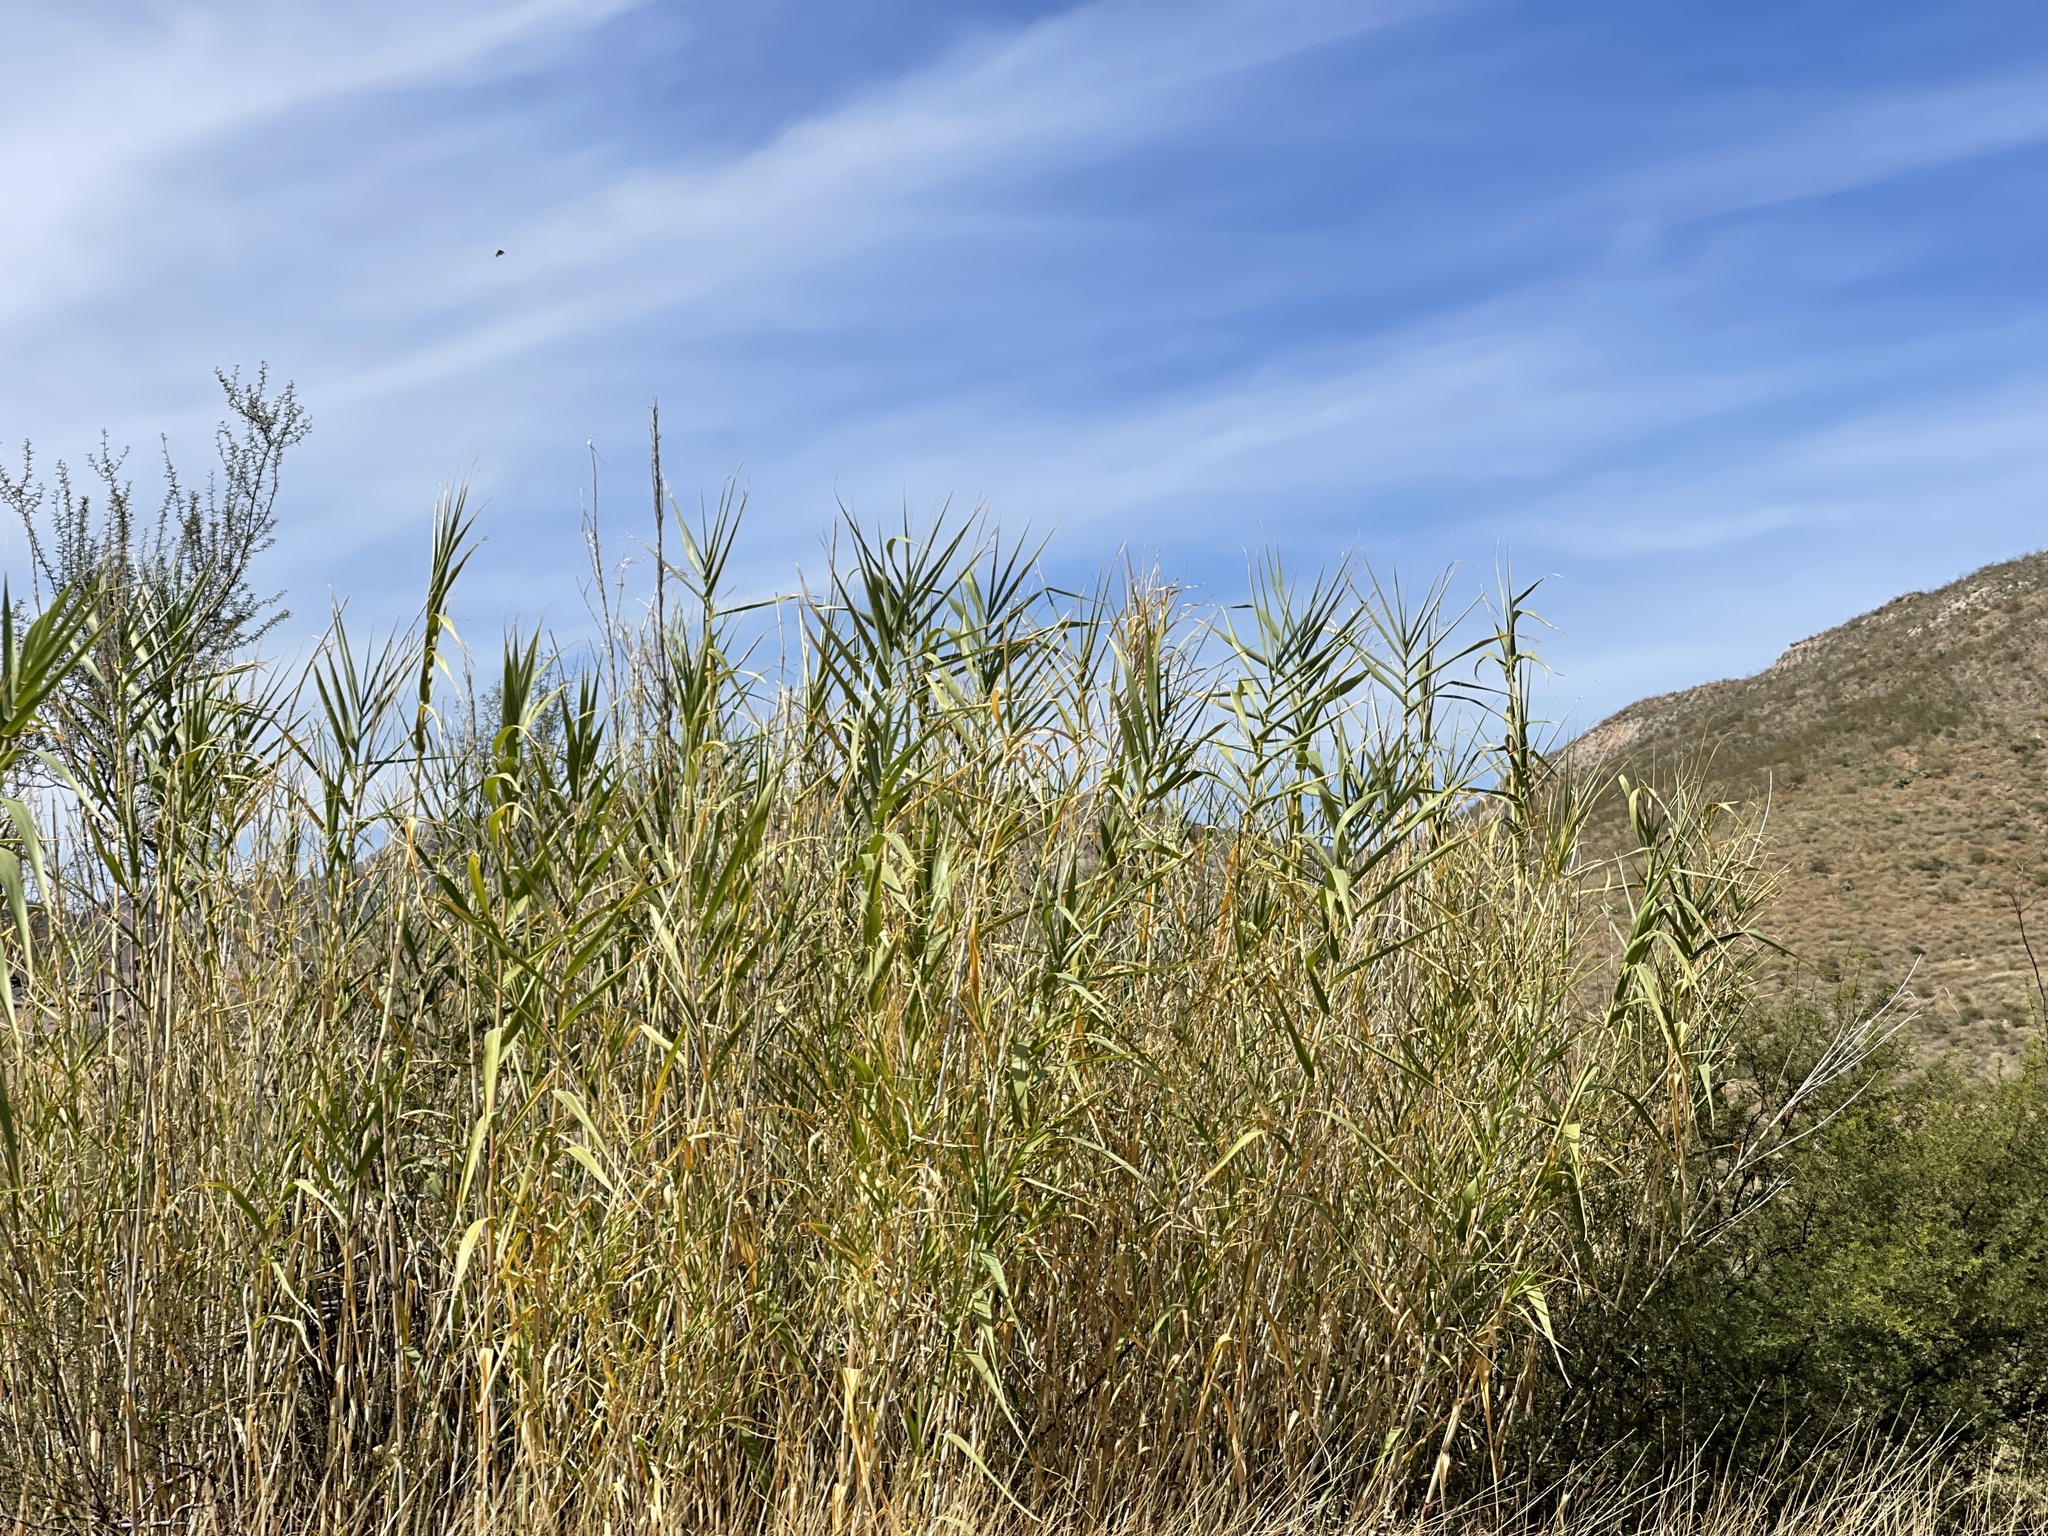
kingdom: Plantae
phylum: Tracheophyta
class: Liliopsida
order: Poales
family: Poaceae
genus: Arundo
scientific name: Arundo donax
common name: Giant reed
